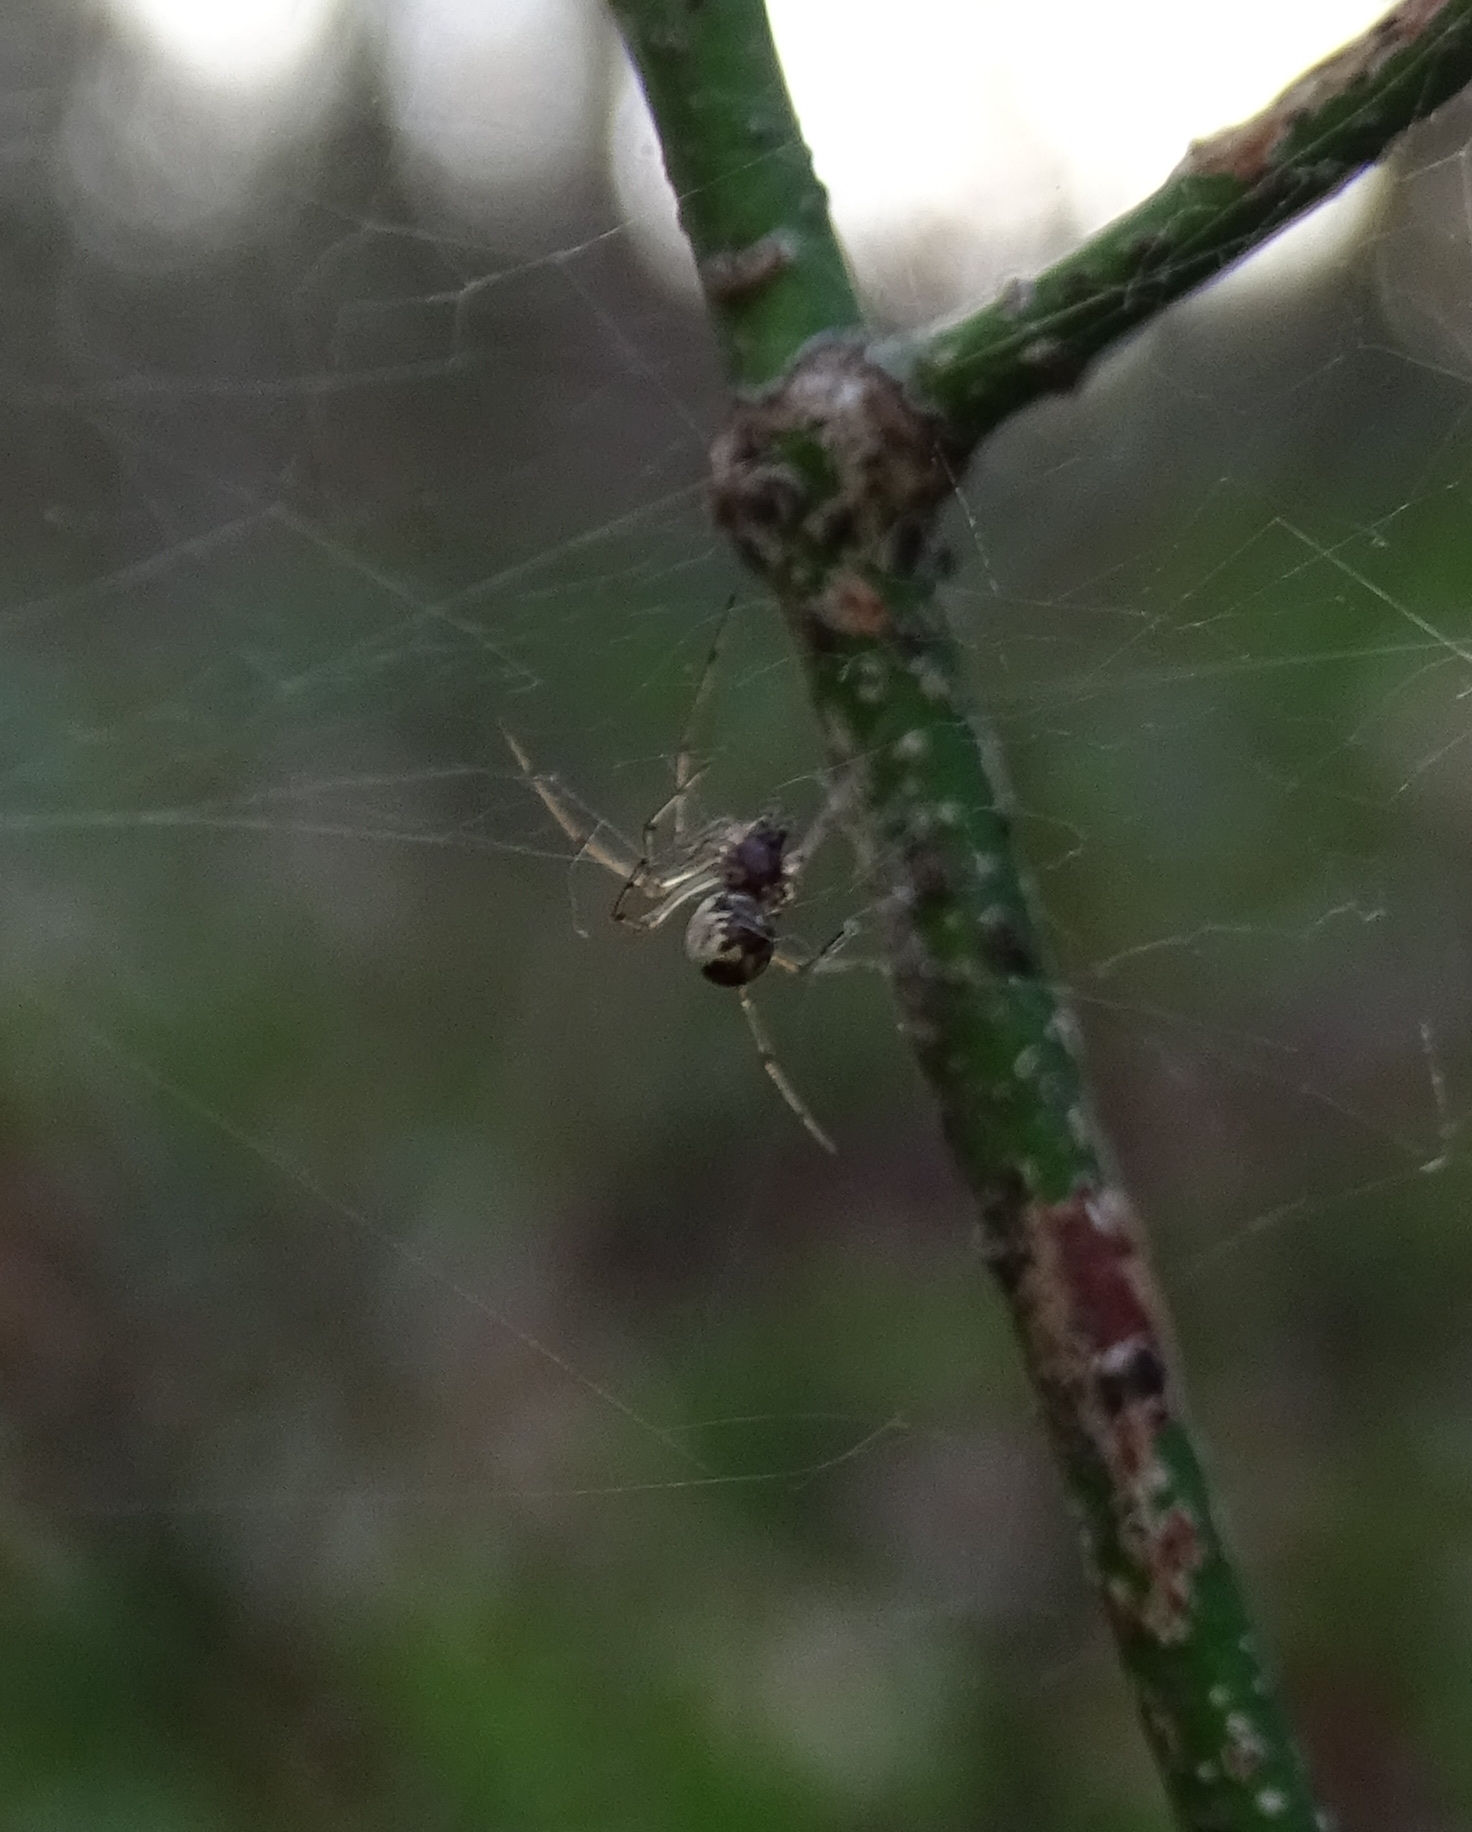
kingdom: Animalia
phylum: Arthropoda
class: Arachnida
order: Araneae
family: Linyphiidae
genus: Neriene
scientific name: Neriene peltata
